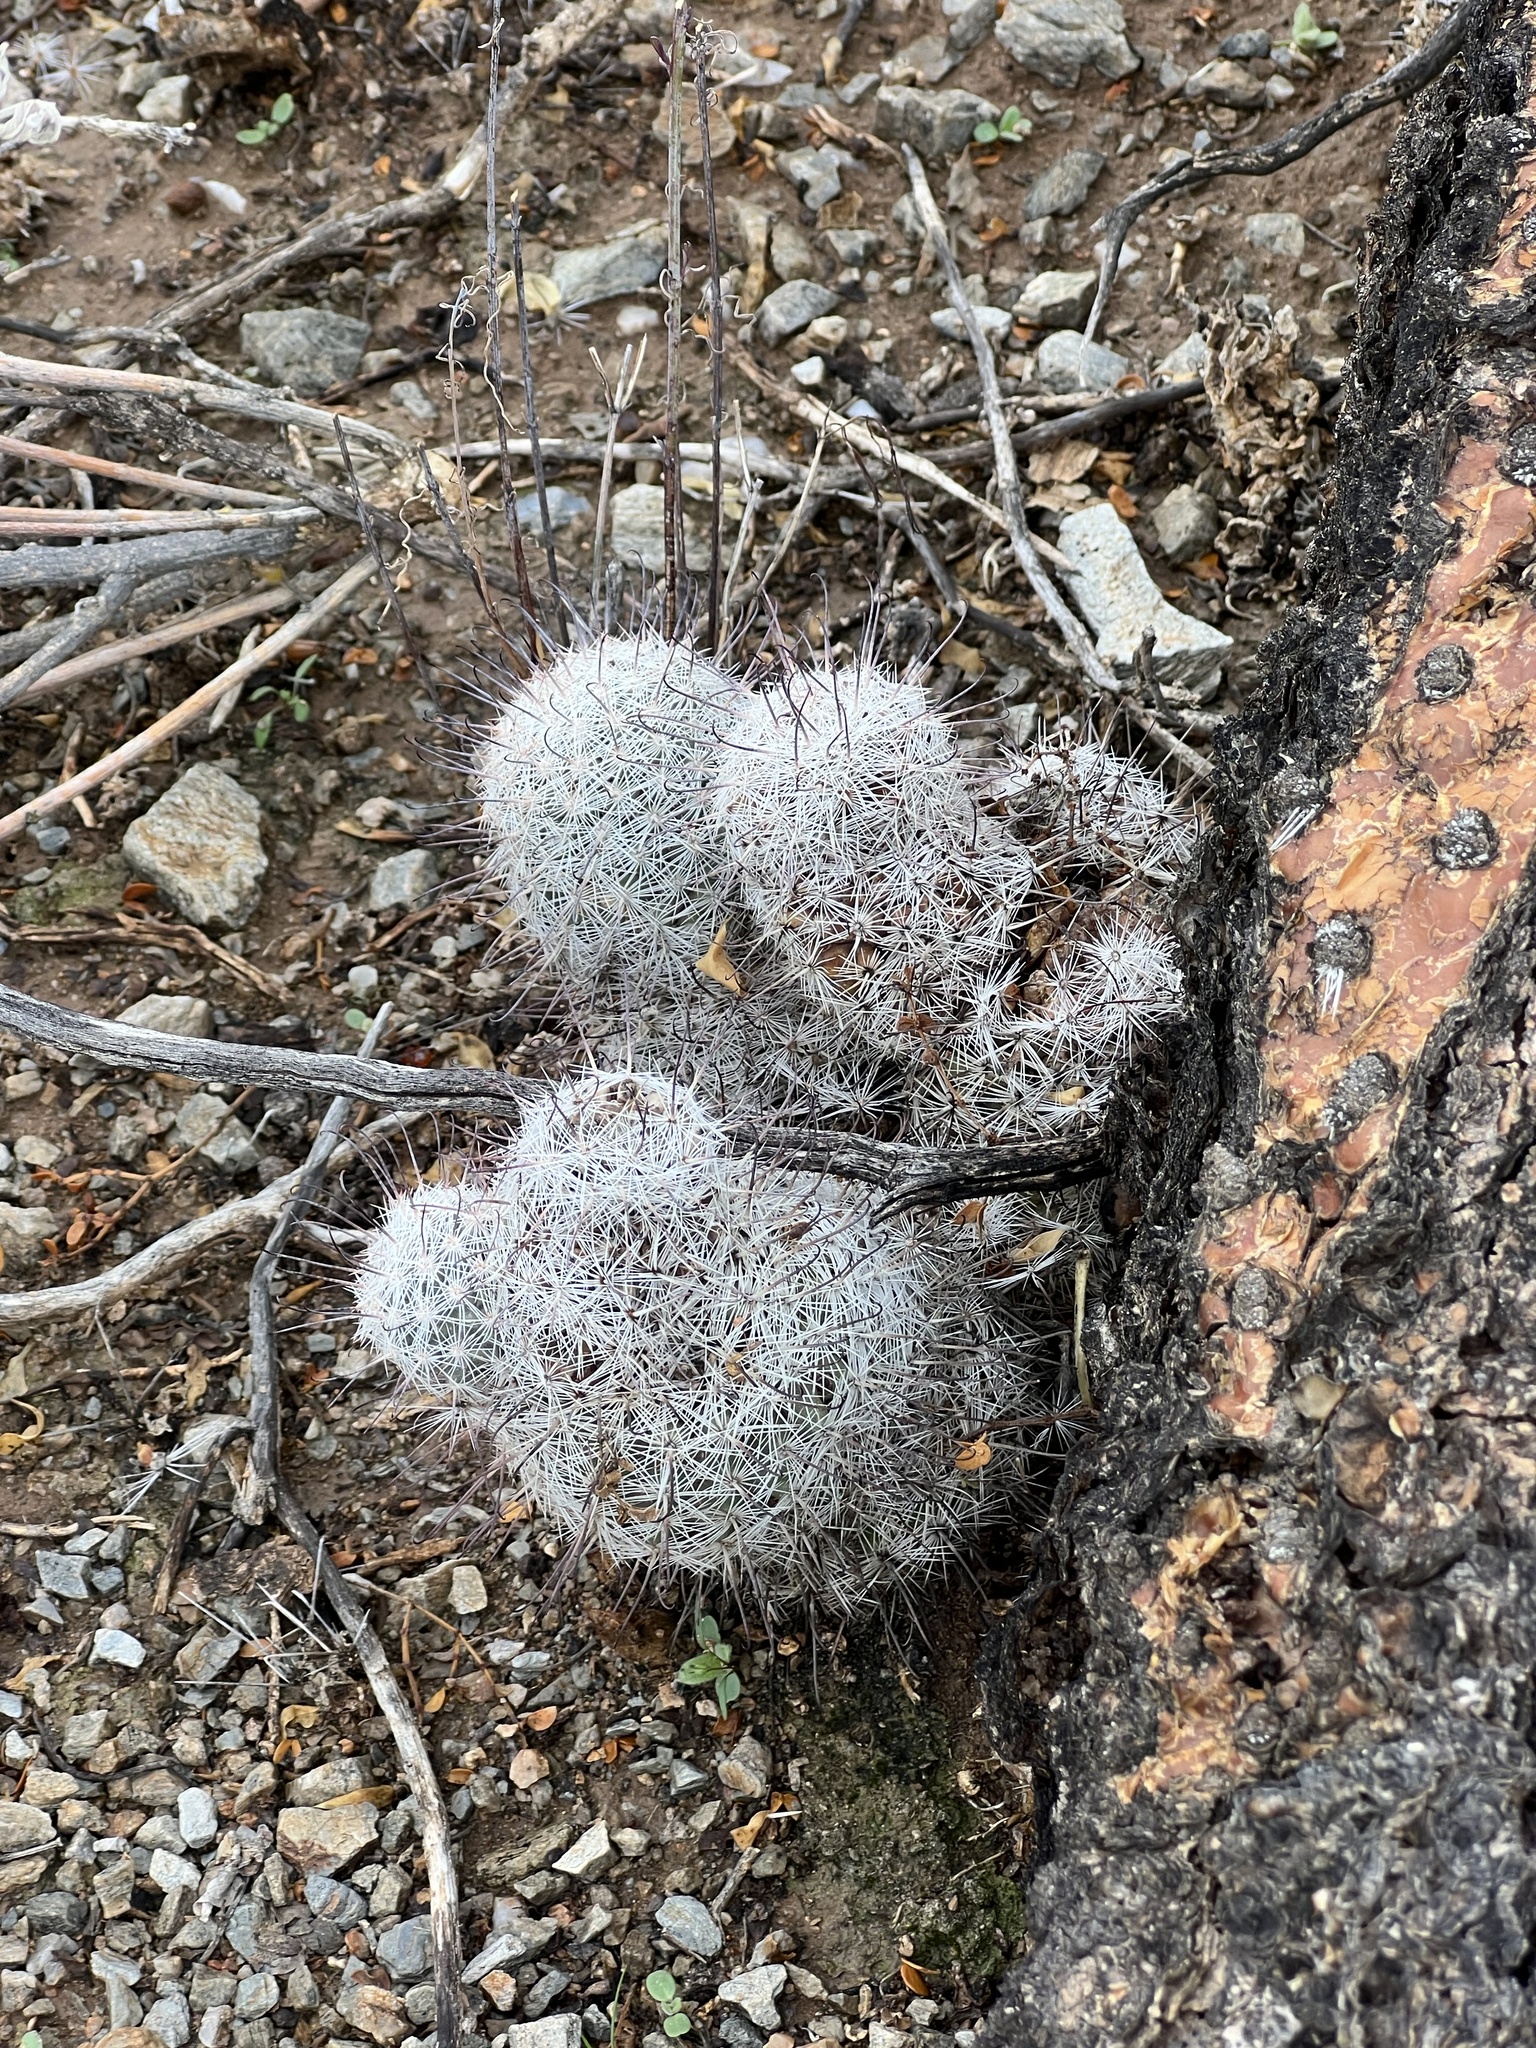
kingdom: Plantae
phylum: Tracheophyta
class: Magnoliopsida
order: Caryophyllales
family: Cactaceae
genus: Cochemiea
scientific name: Cochemiea grahamii
